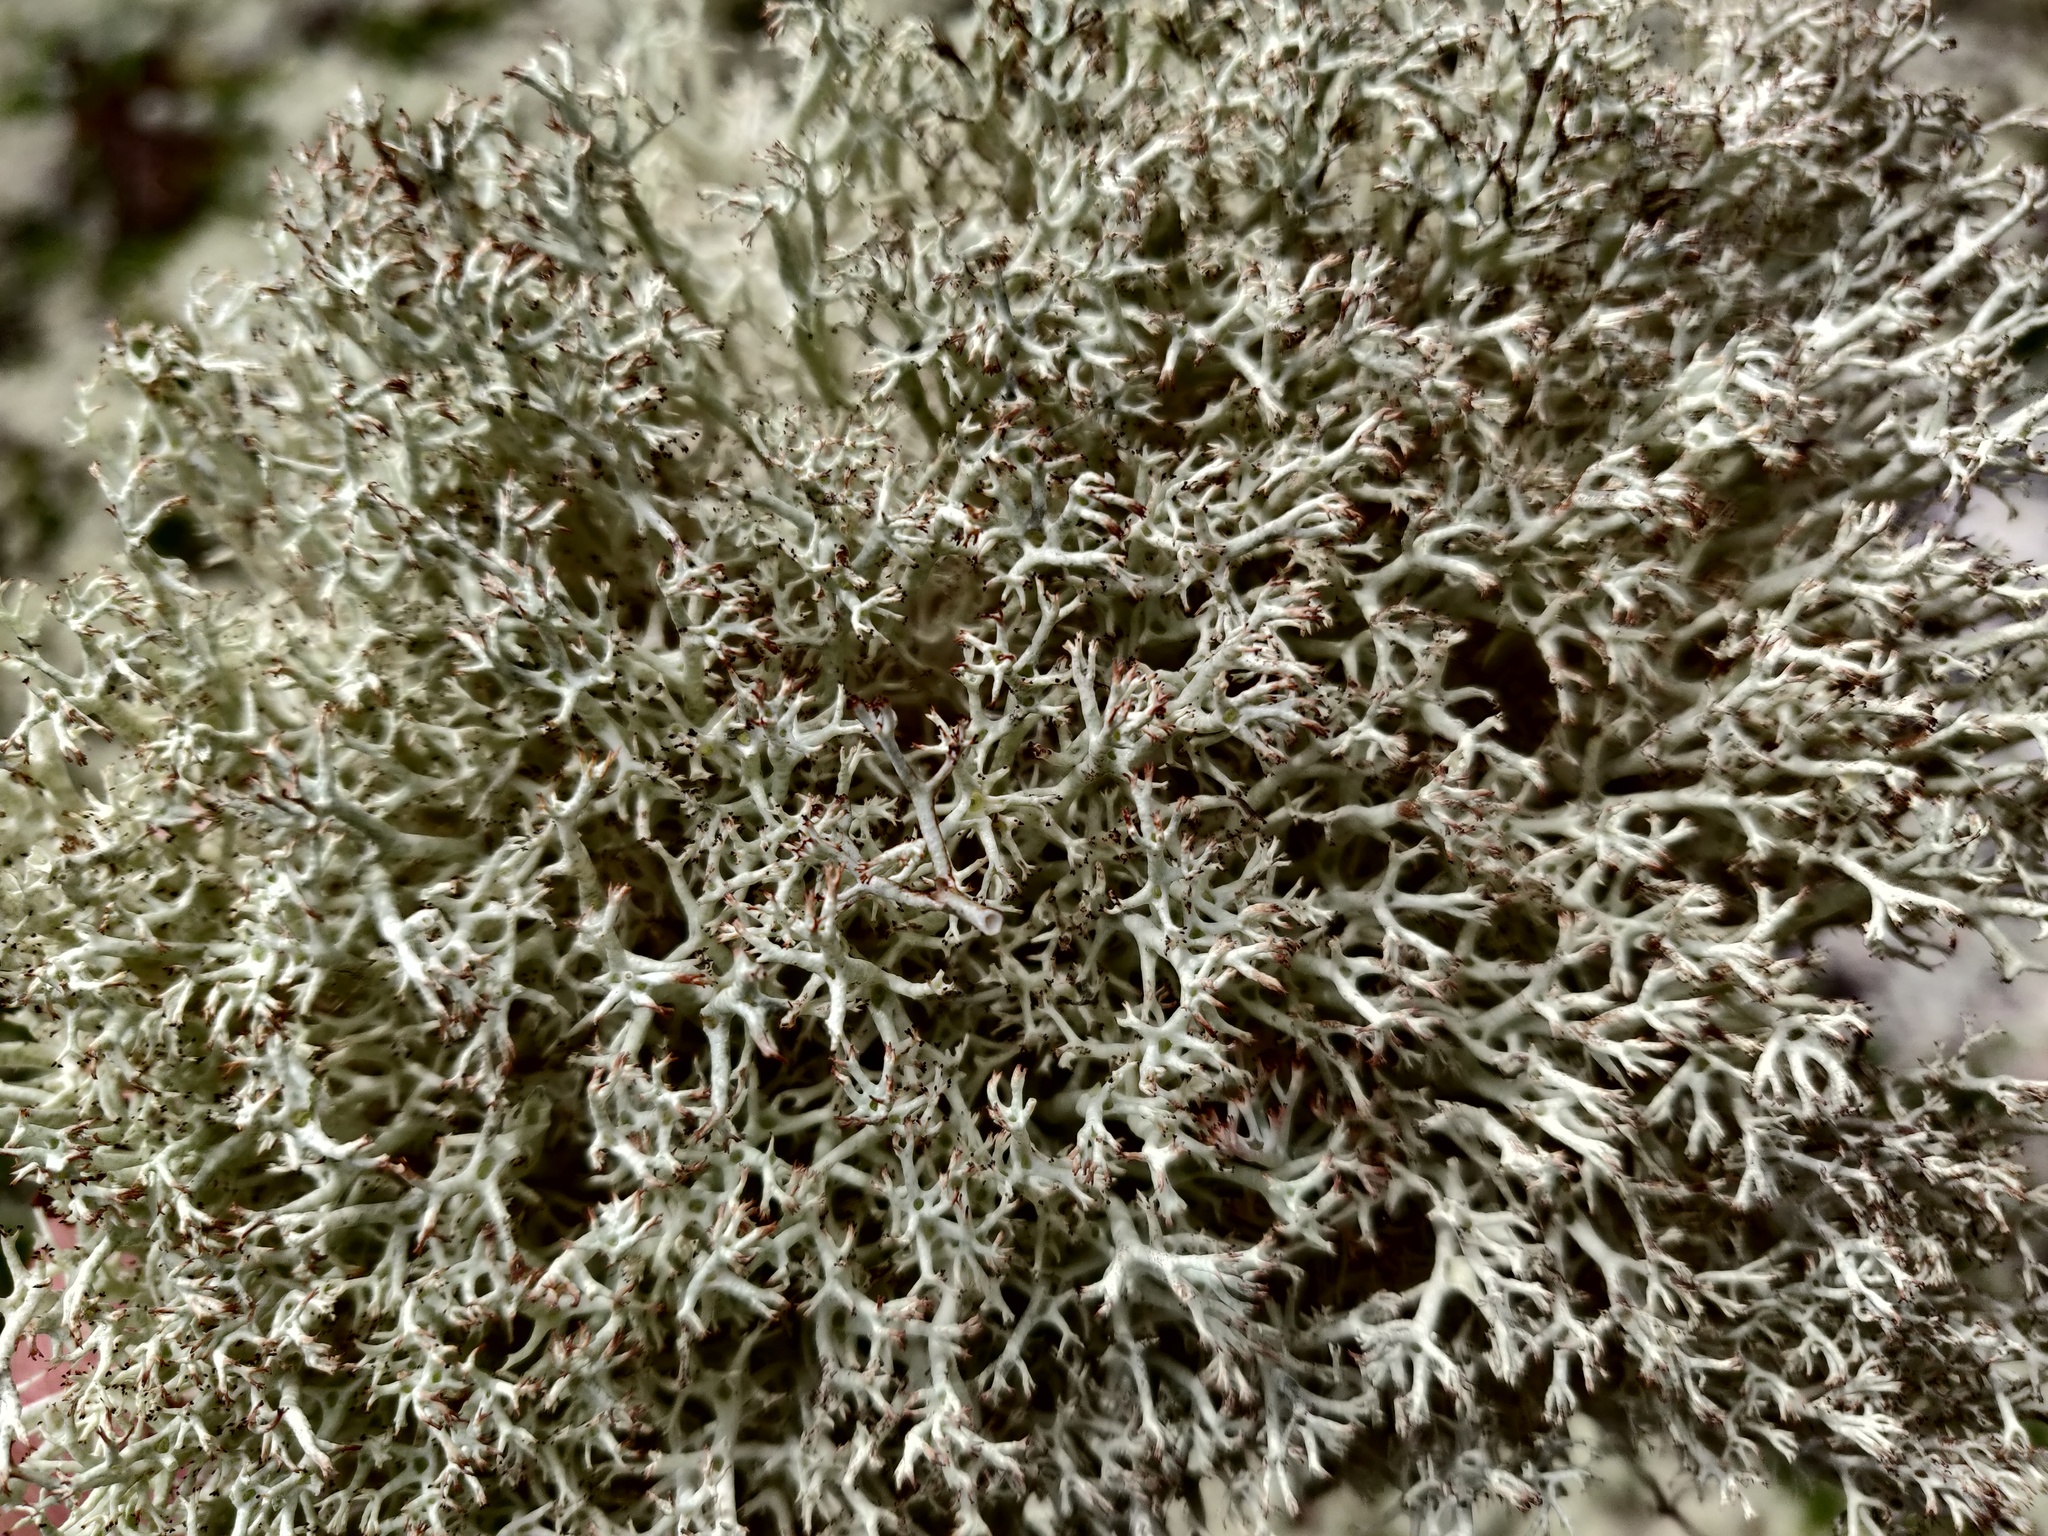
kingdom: Fungi
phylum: Ascomycota
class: Lecanoromycetes
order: Lecanorales
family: Cladoniaceae
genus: Cladonia
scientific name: Cladonia rangiferina
